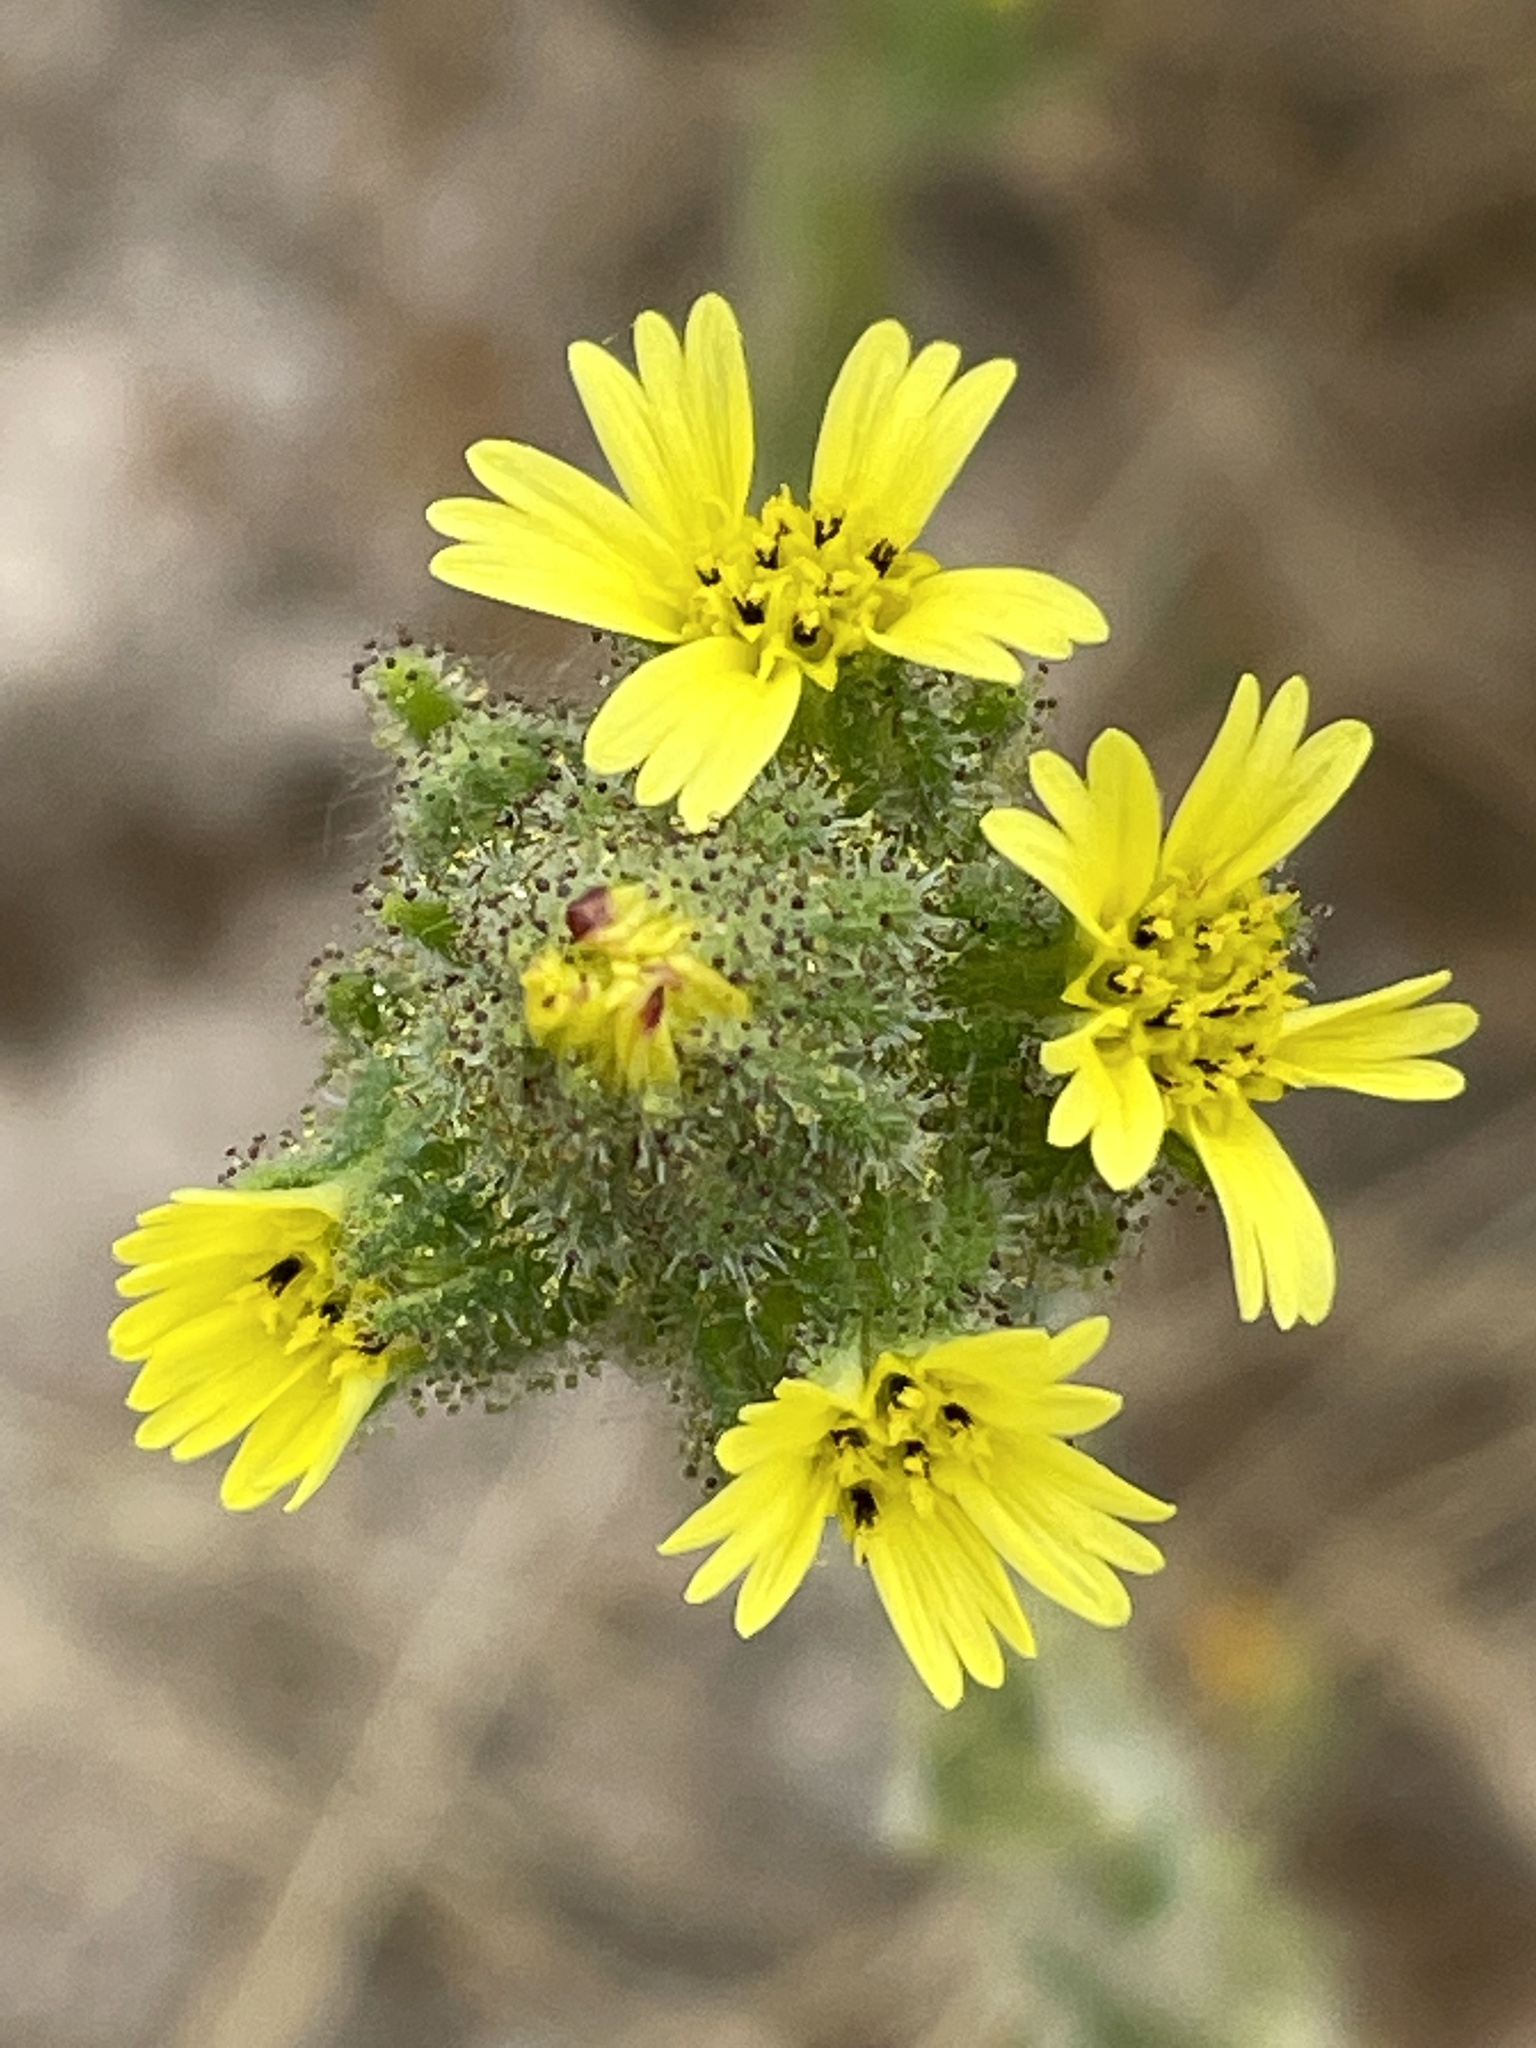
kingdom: Plantae
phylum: Tracheophyta
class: Magnoliopsida
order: Asterales
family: Asteraceae
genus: Madia
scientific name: Madia sativa
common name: Coast tarweed
